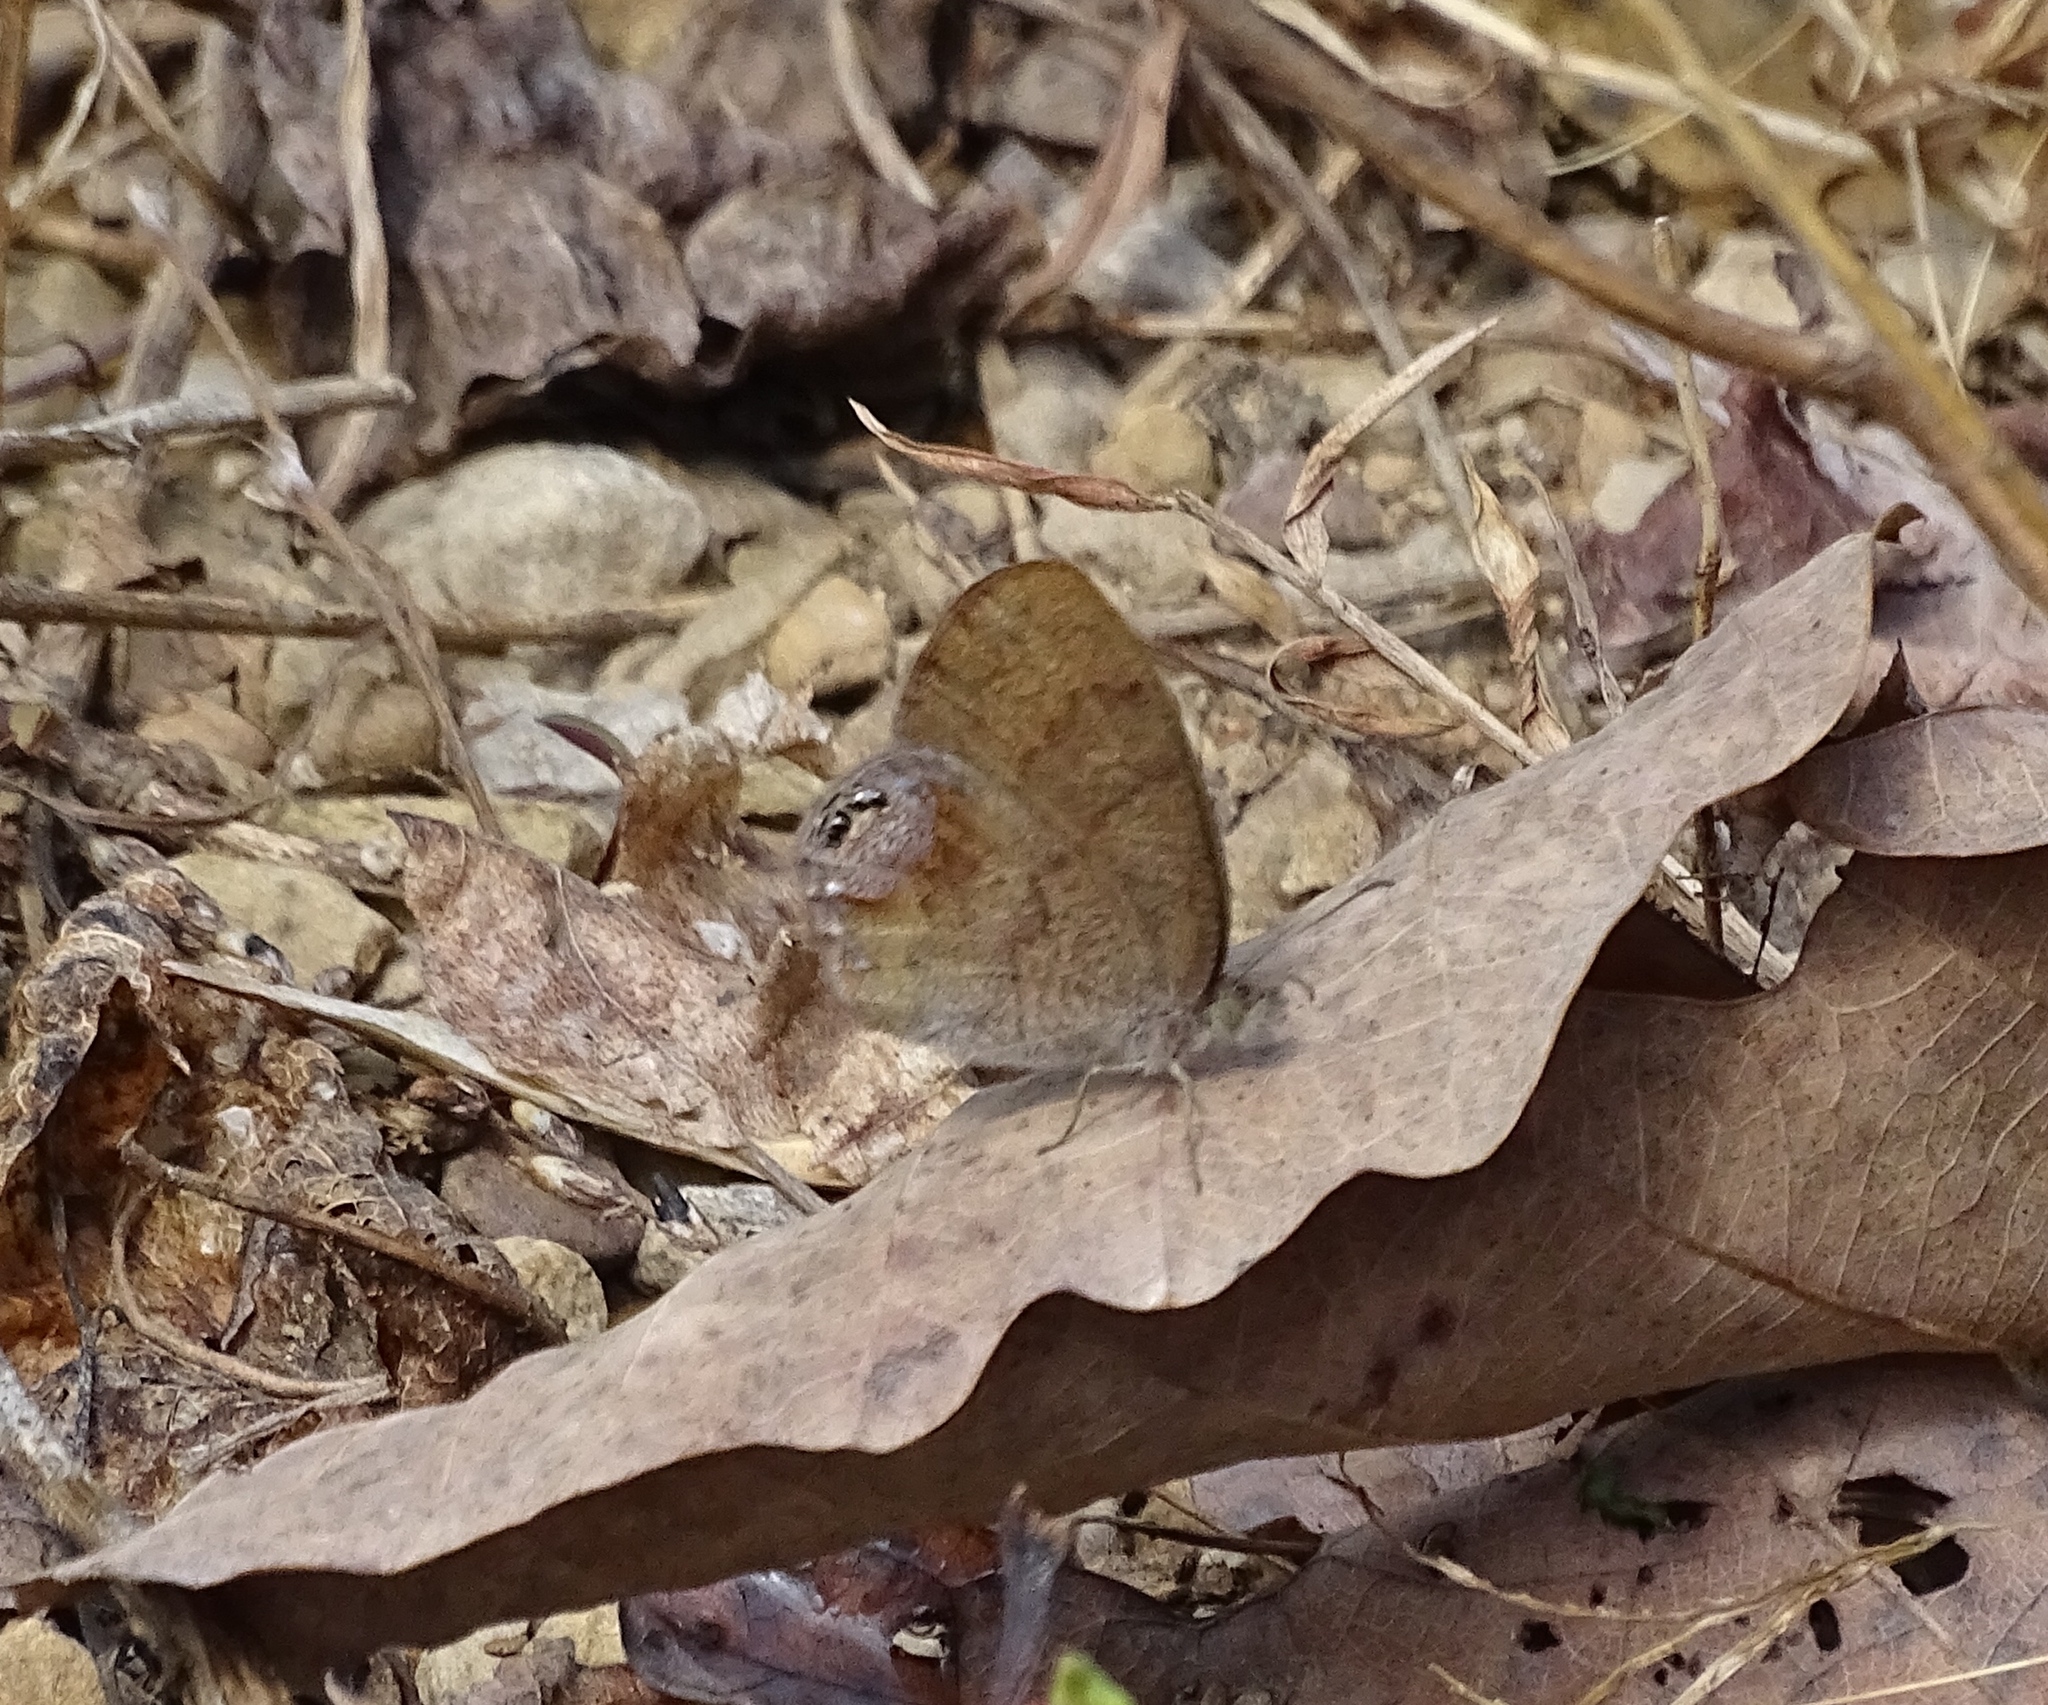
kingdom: Animalia
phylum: Arthropoda
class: Insecta
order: Lepidoptera
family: Nymphalidae
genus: Euptychia
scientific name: Euptychia cornelius
